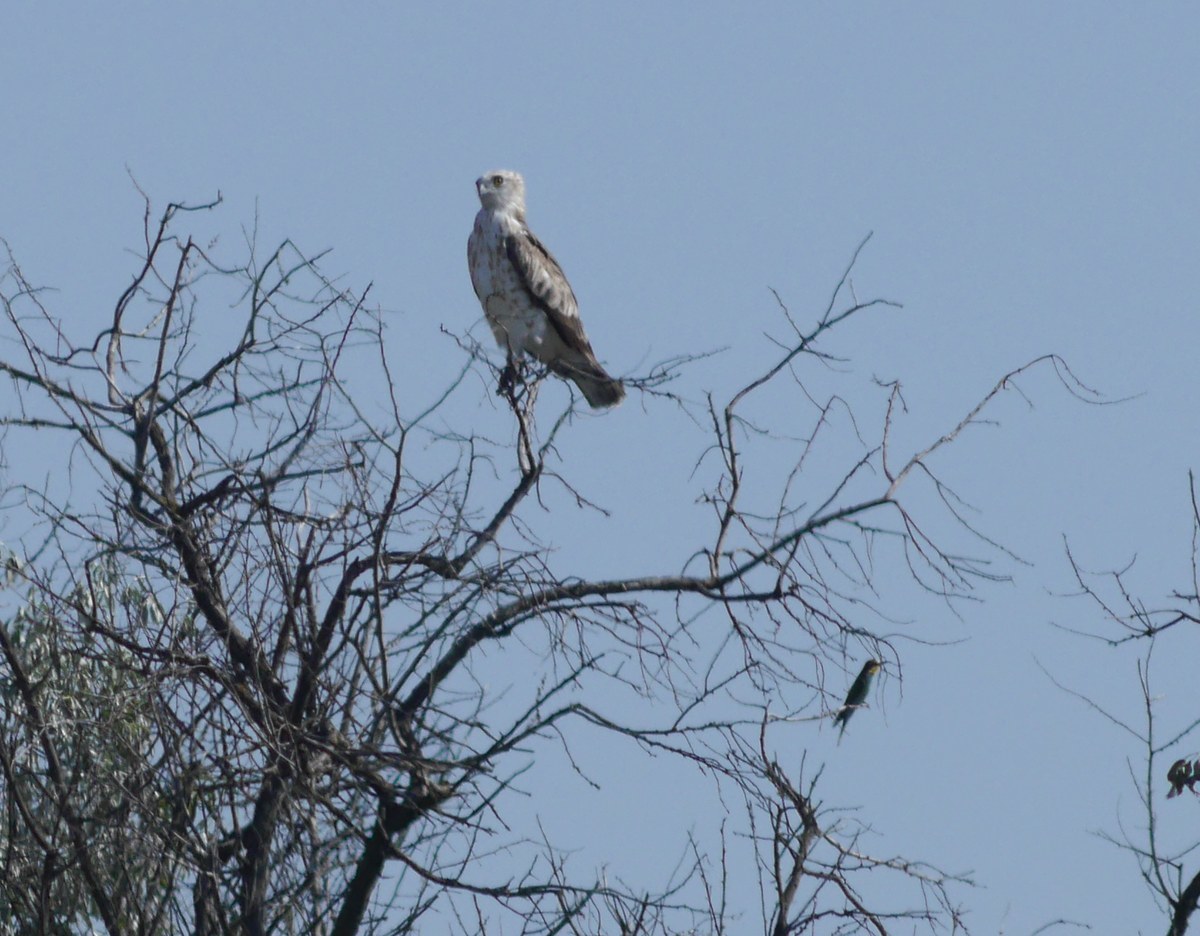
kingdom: Animalia
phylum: Chordata
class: Aves
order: Accipitriformes
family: Accipitridae
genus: Circaetus
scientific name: Circaetus gallicus
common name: Short-toed snake eagle
